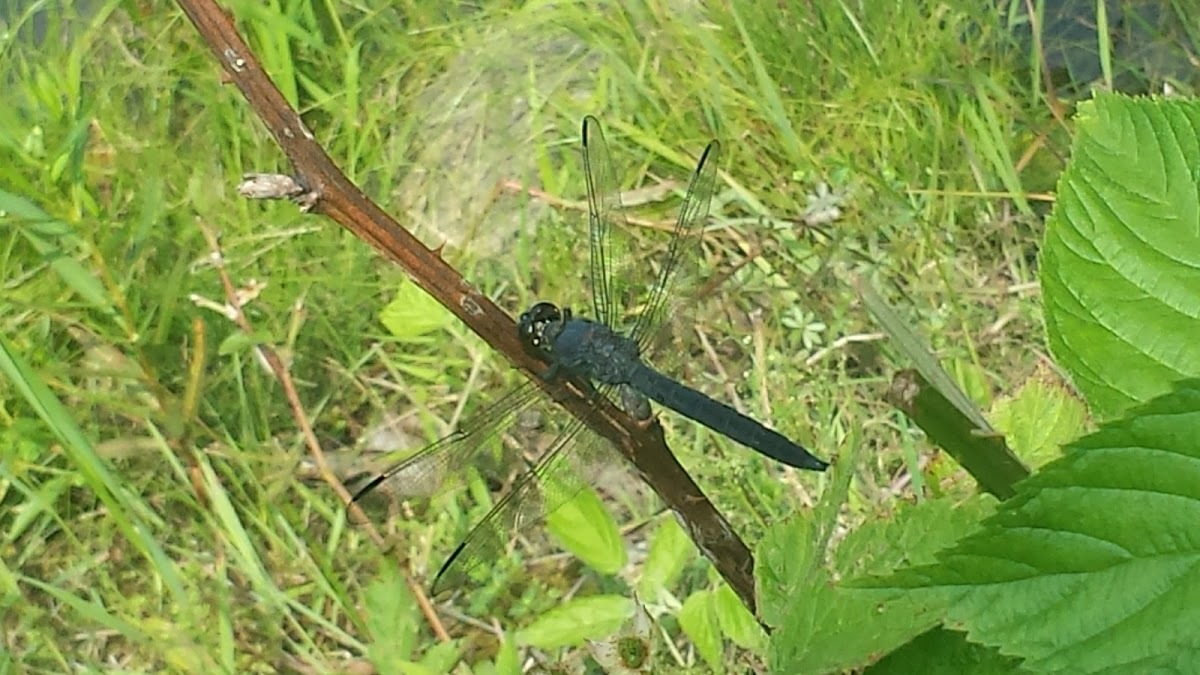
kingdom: Animalia
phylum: Arthropoda
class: Insecta
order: Odonata
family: Libellulidae
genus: Libellula
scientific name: Libellula incesta
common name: Slaty skimmer
